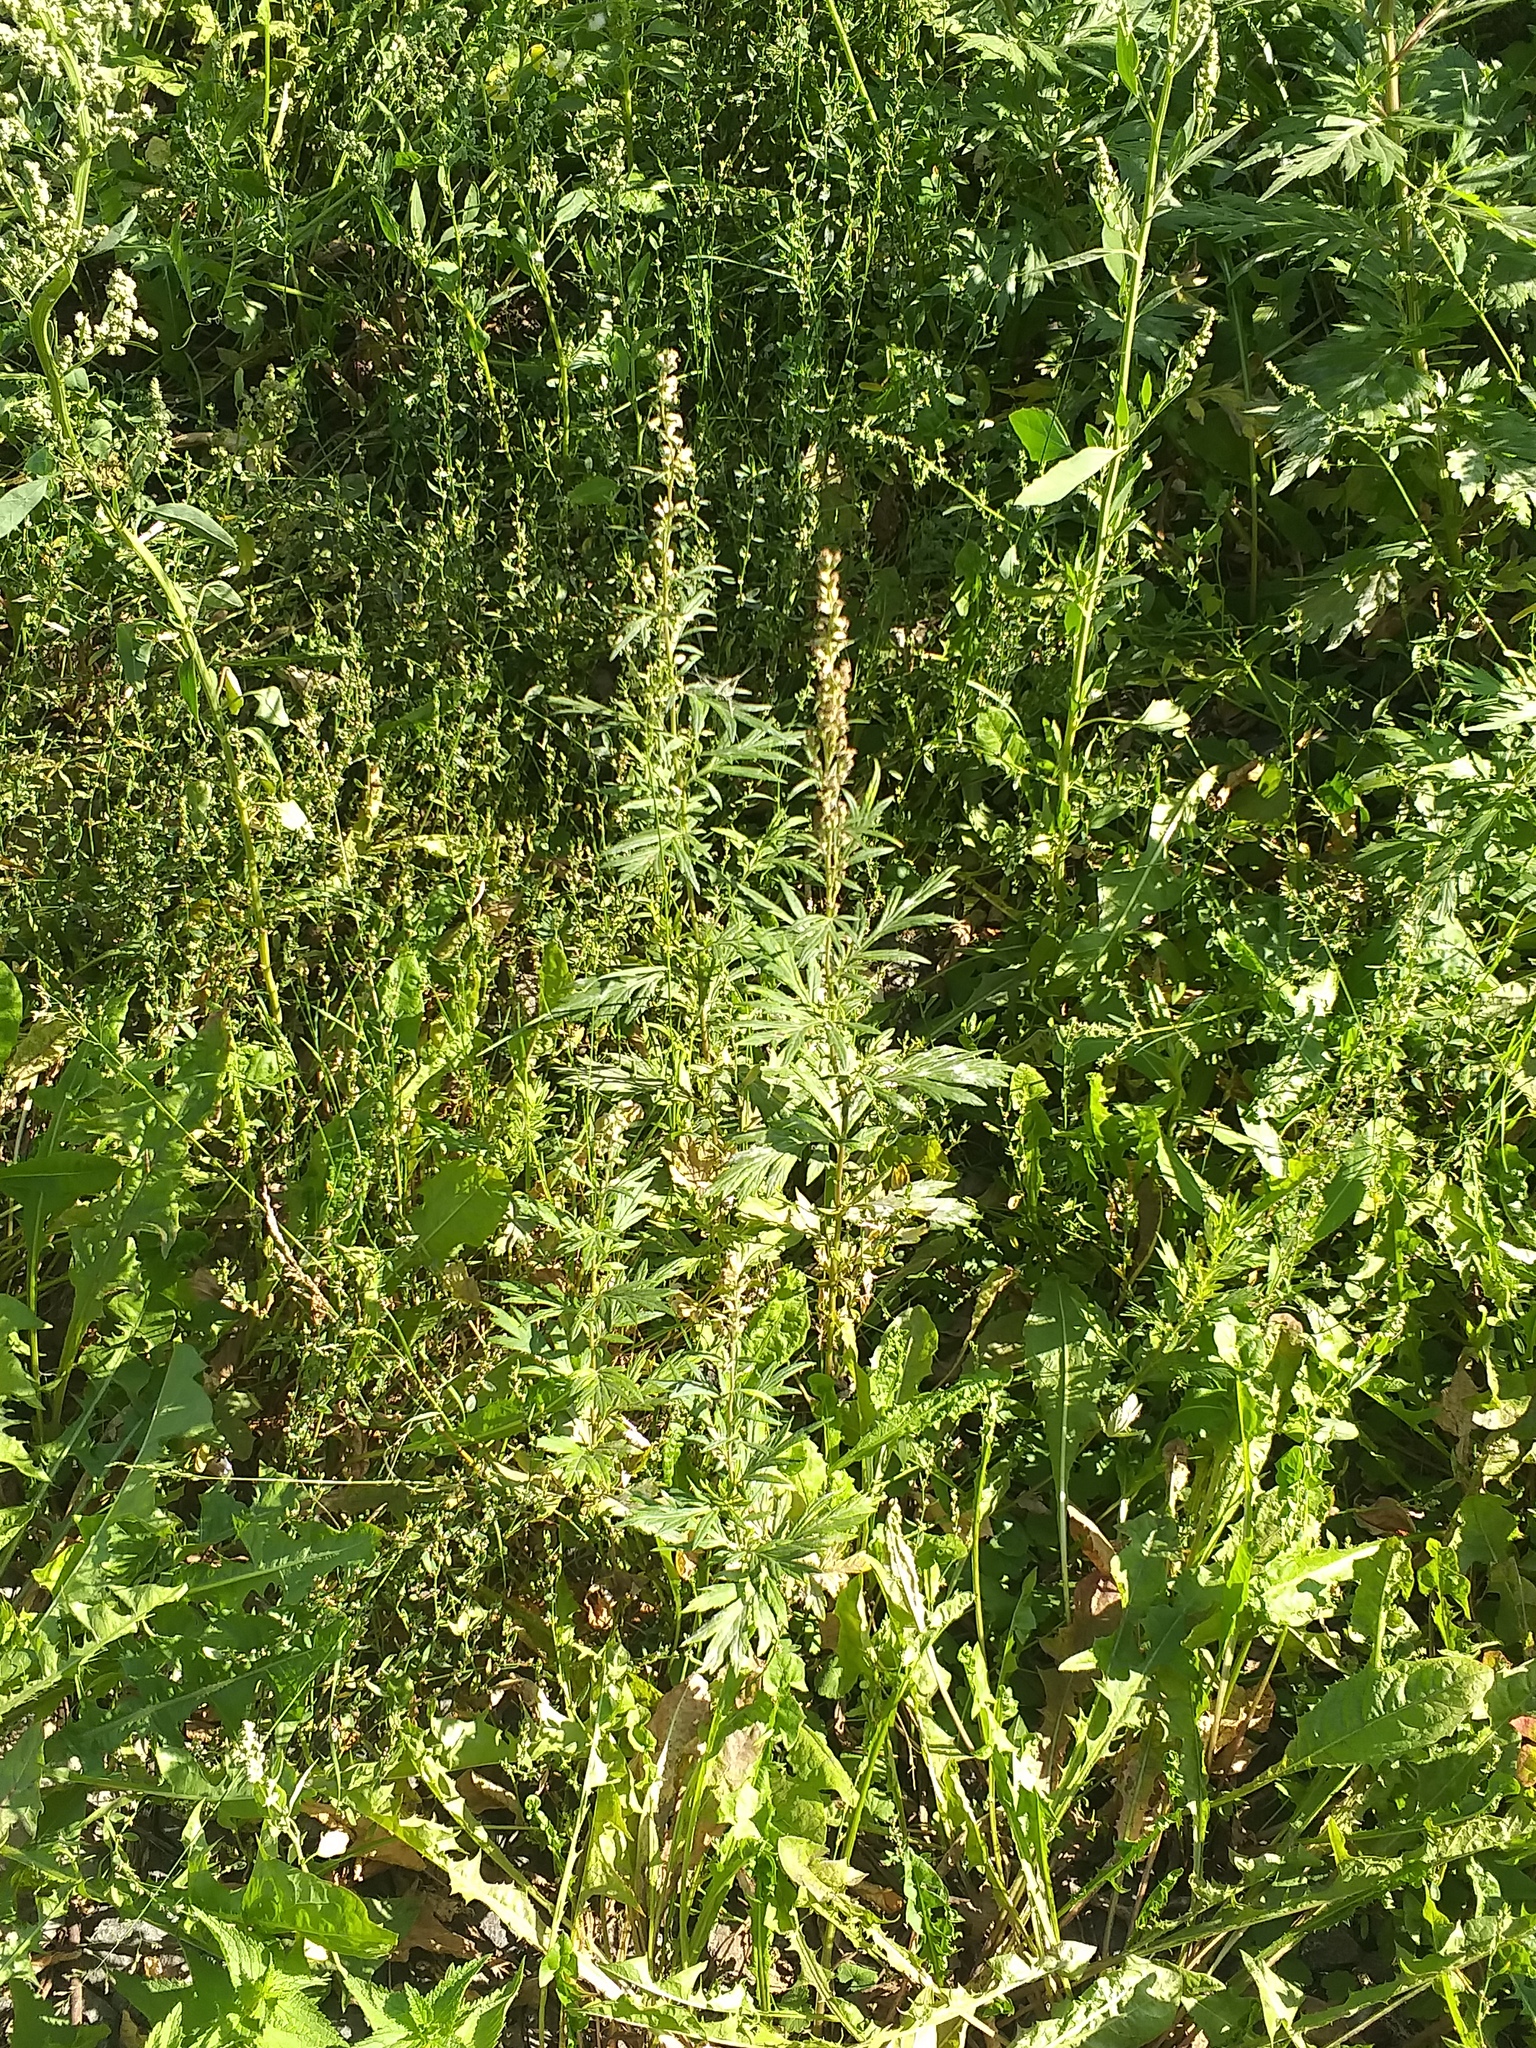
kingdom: Plantae
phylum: Tracheophyta
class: Magnoliopsida
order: Asterales
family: Asteraceae
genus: Artemisia
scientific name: Artemisia vulgaris
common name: Mugwort
